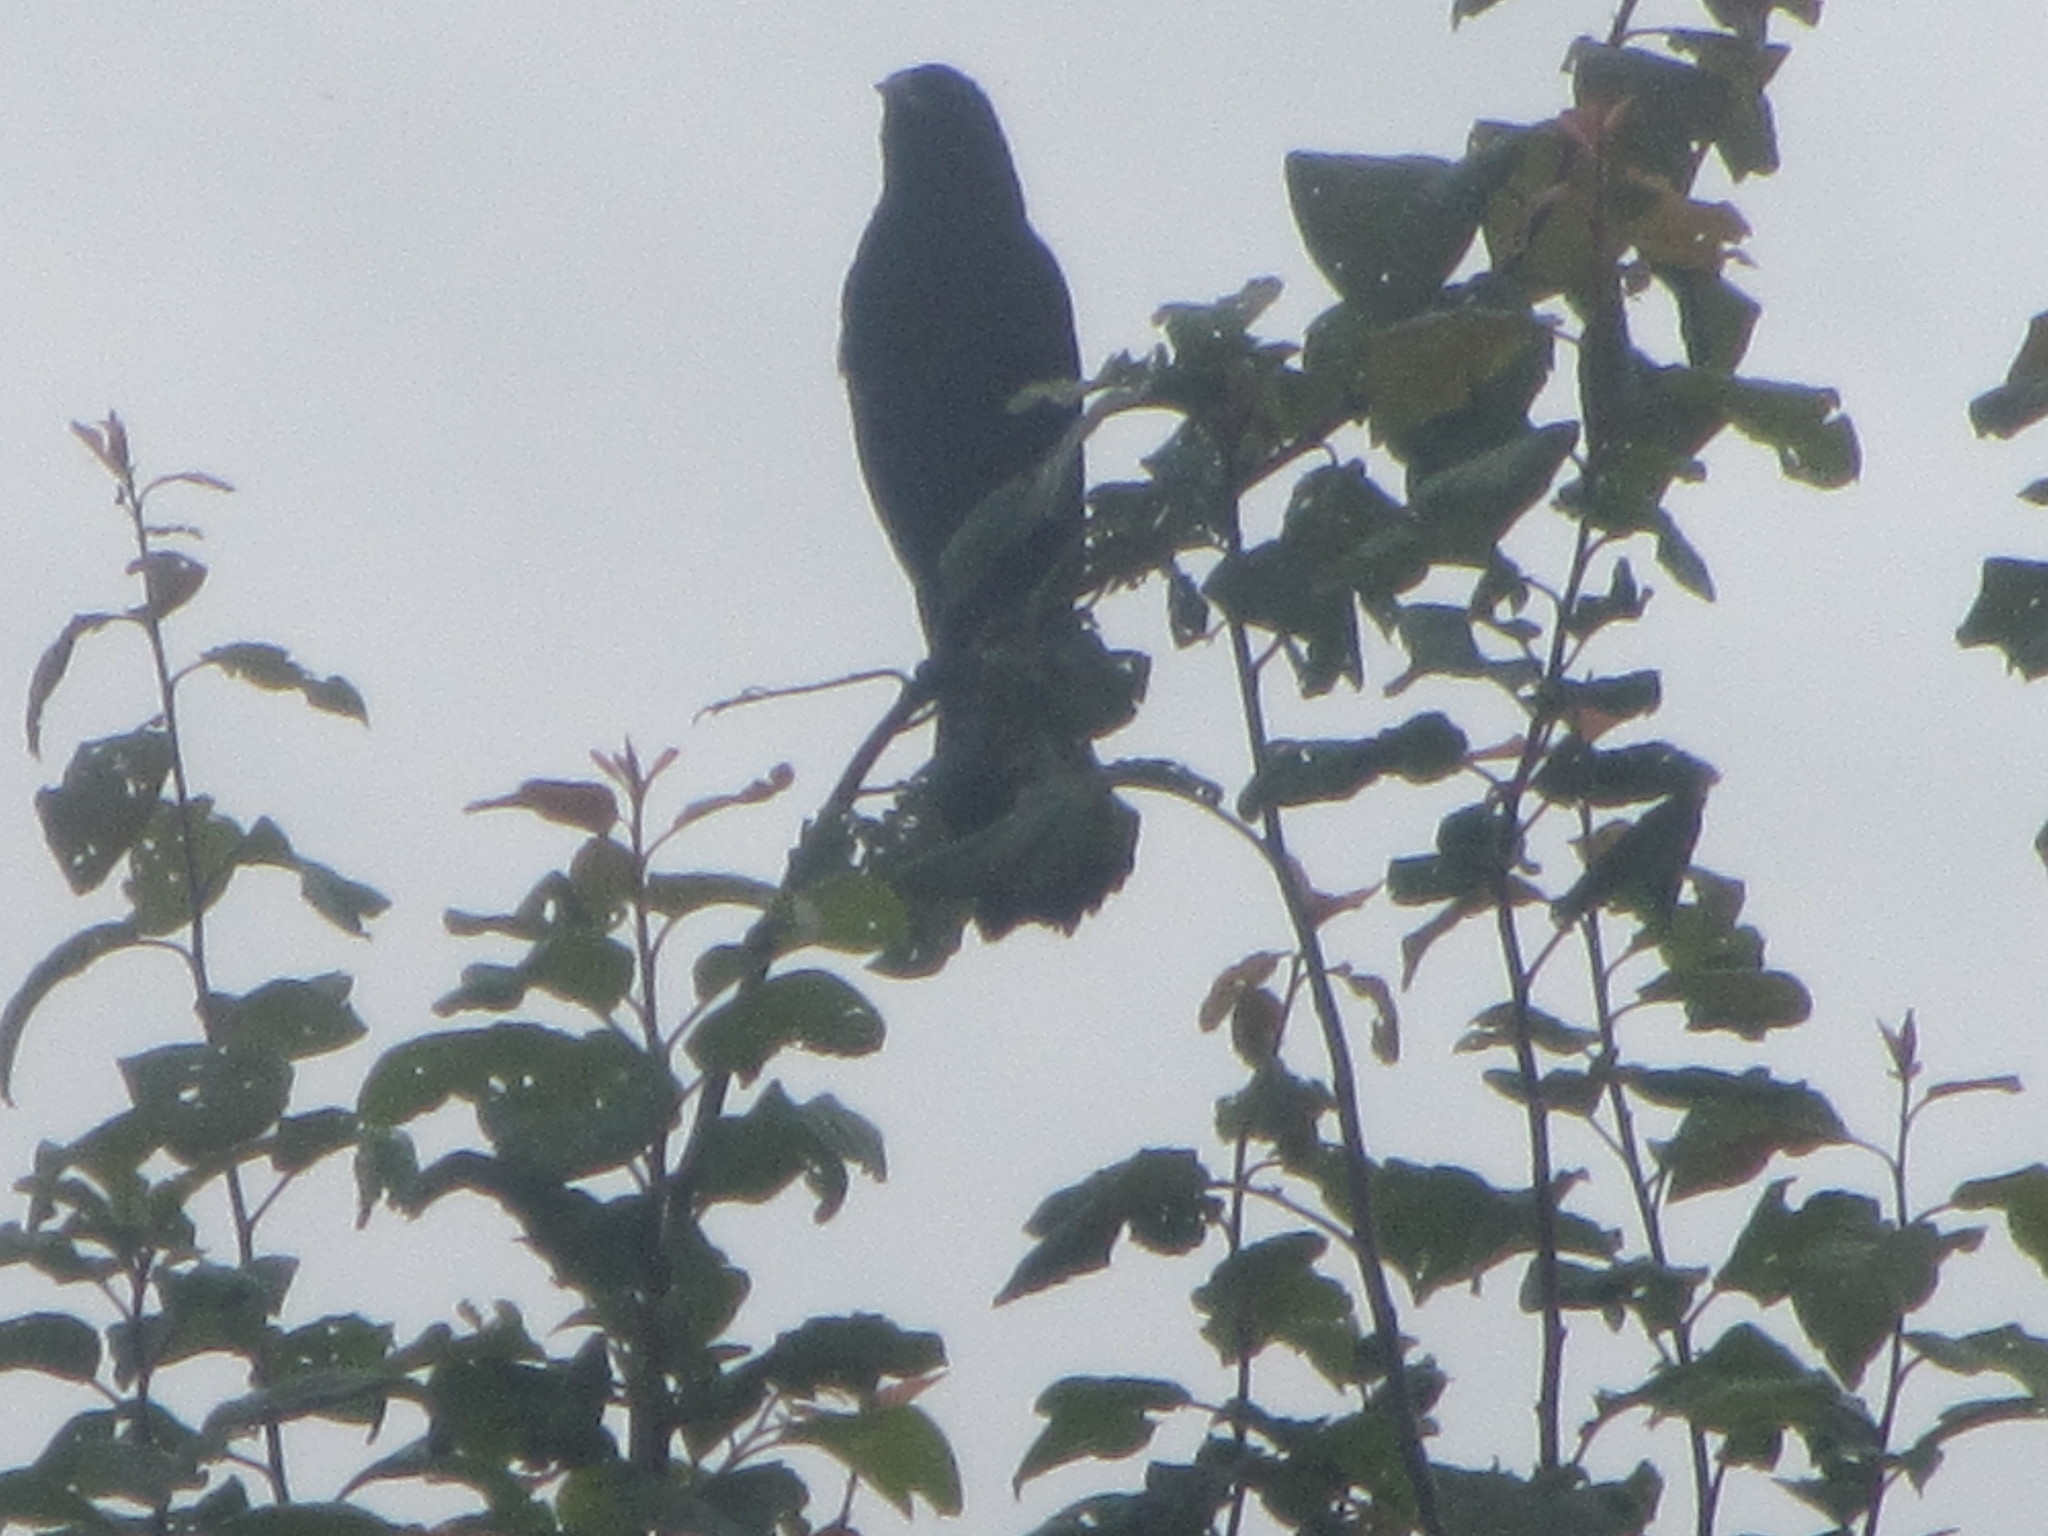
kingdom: Animalia
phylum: Chordata
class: Aves
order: Passeriformes
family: Icteridae
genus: Agelaius
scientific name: Agelaius phoeniceus
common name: Red-winged blackbird
